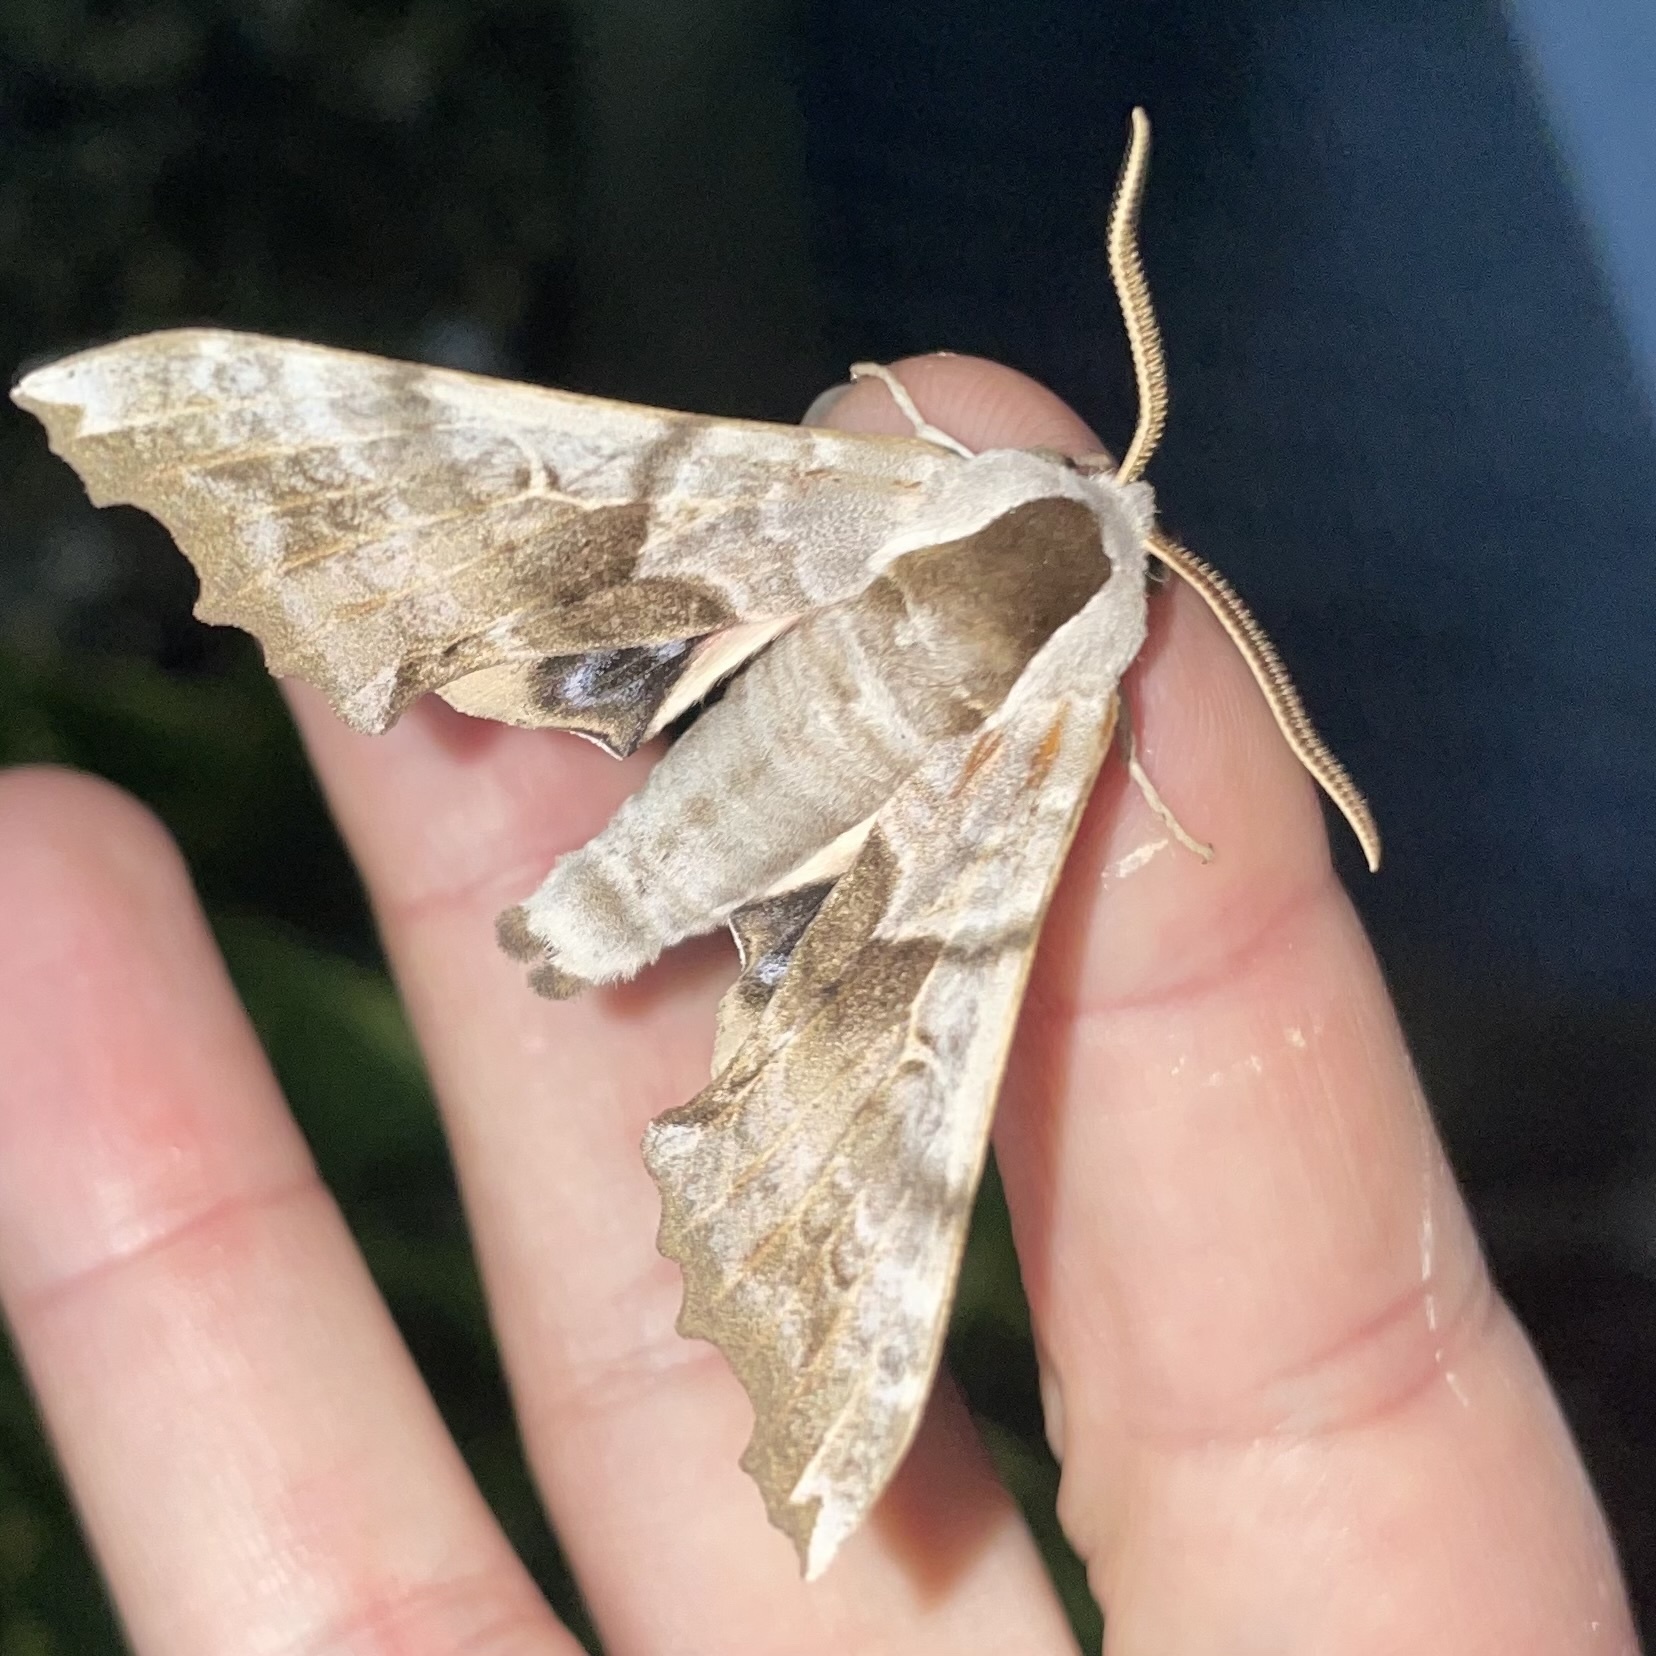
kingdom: Animalia
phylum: Arthropoda
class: Insecta
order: Lepidoptera
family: Sphingidae
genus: Smerinthus
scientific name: Smerinthus cerisyi
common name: Cerisy's sphinx moth
